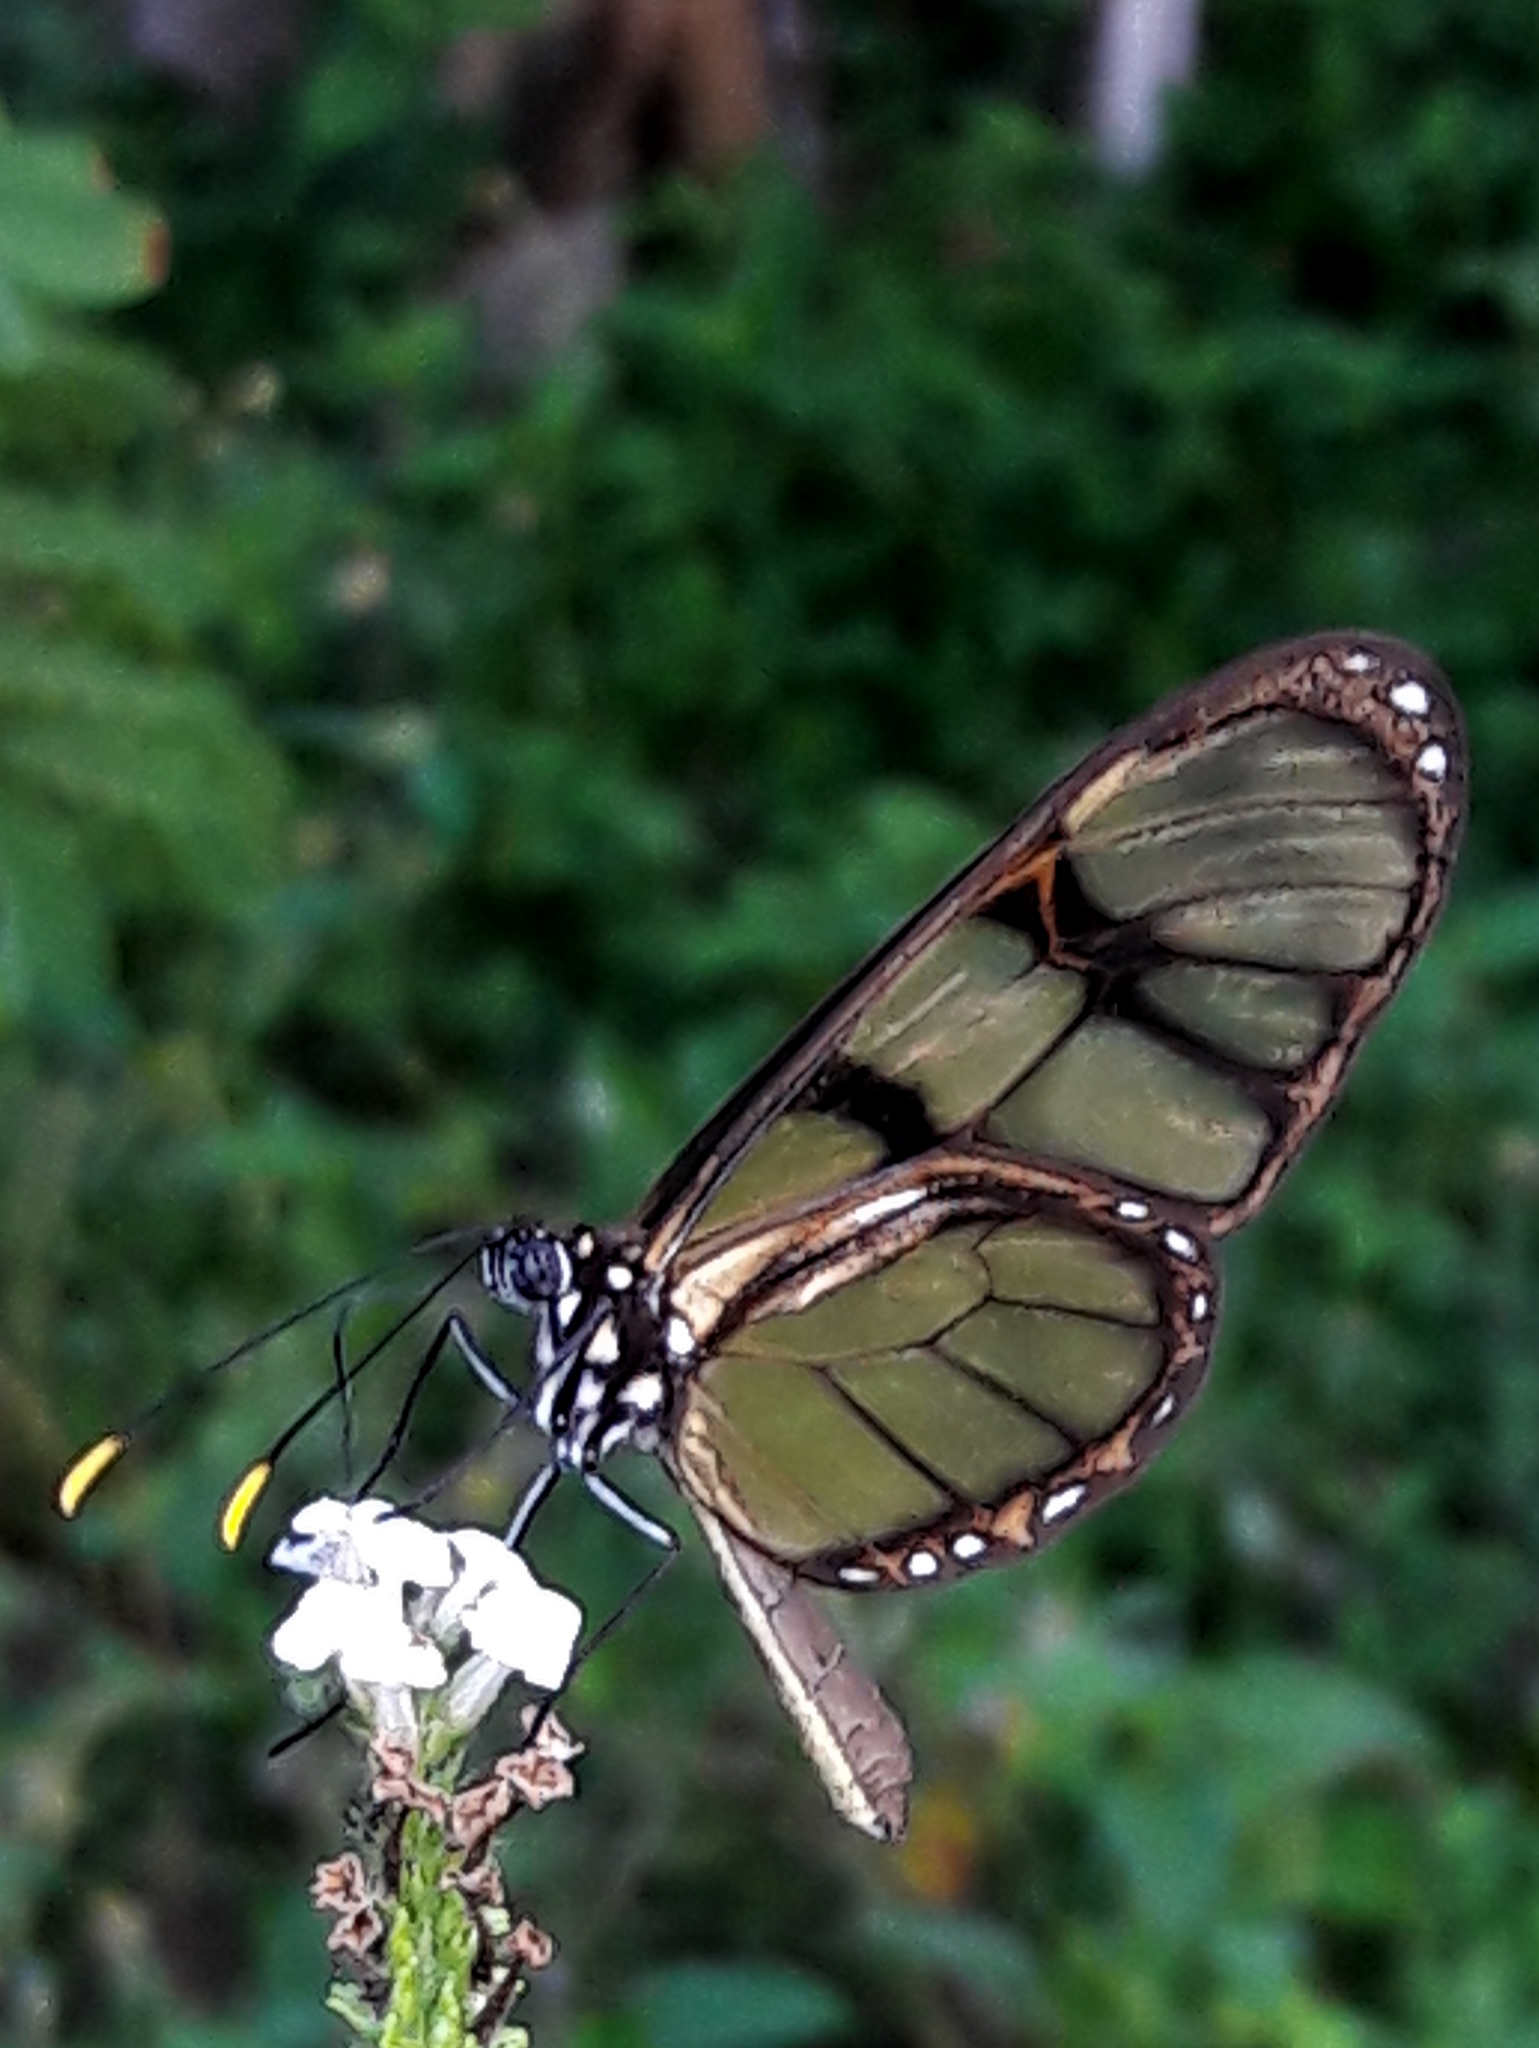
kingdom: Animalia
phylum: Arthropoda
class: Insecta
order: Lepidoptera
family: Nymphalidae
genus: Dircenna
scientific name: Dircenna dero
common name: Dero clearwing
